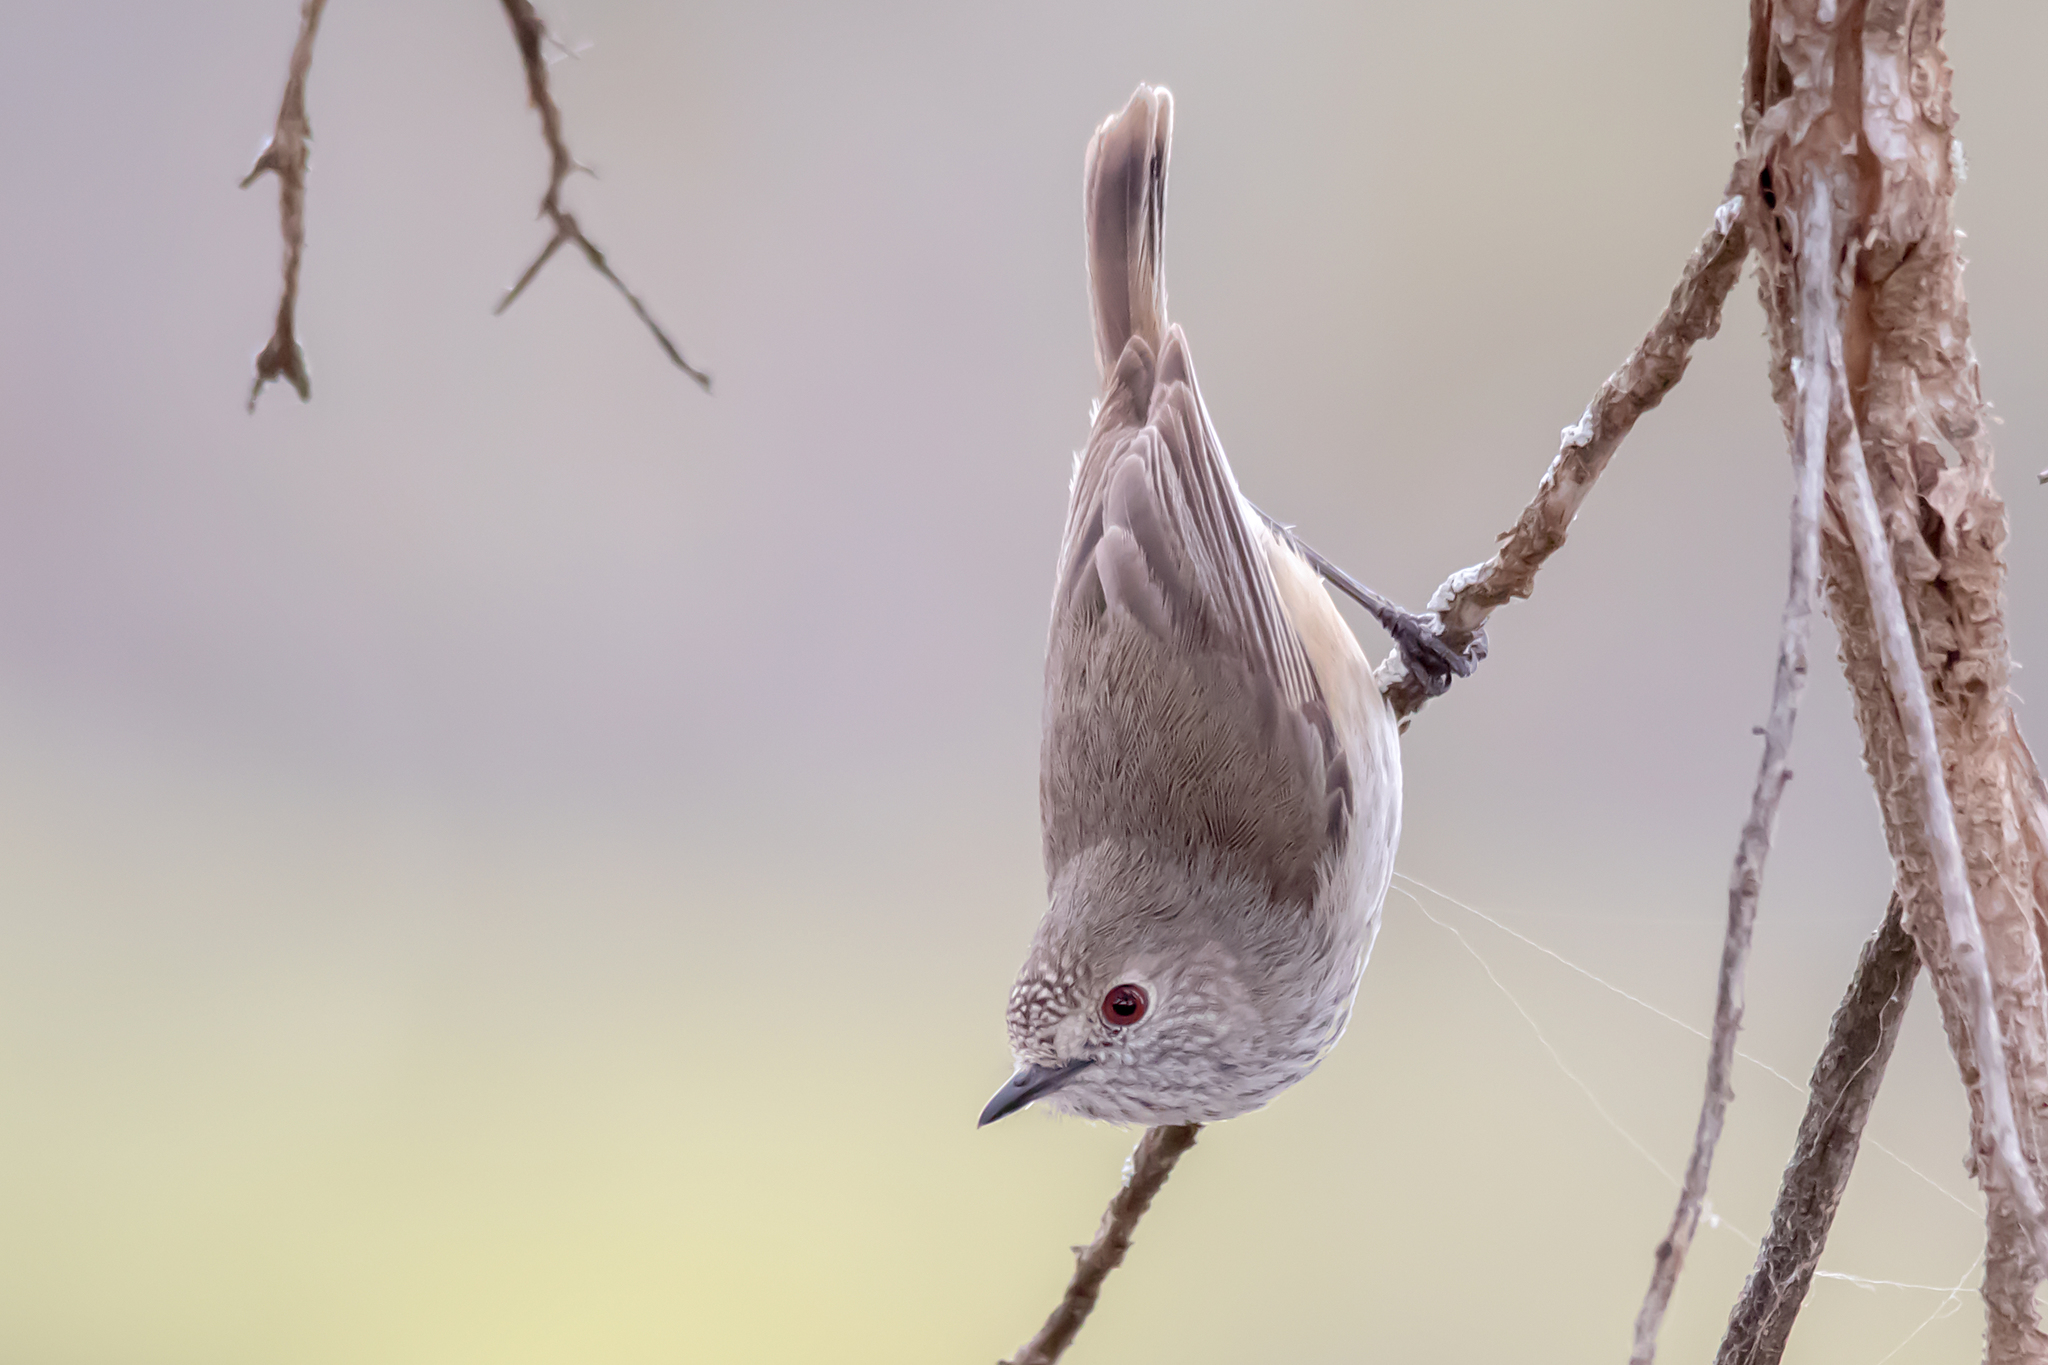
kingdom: Animalia
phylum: Chordata
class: Aves
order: Passeriformes
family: Acanthizidae
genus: Acanthiza
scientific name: Acanthiza apicalis
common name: Inland thornbill
